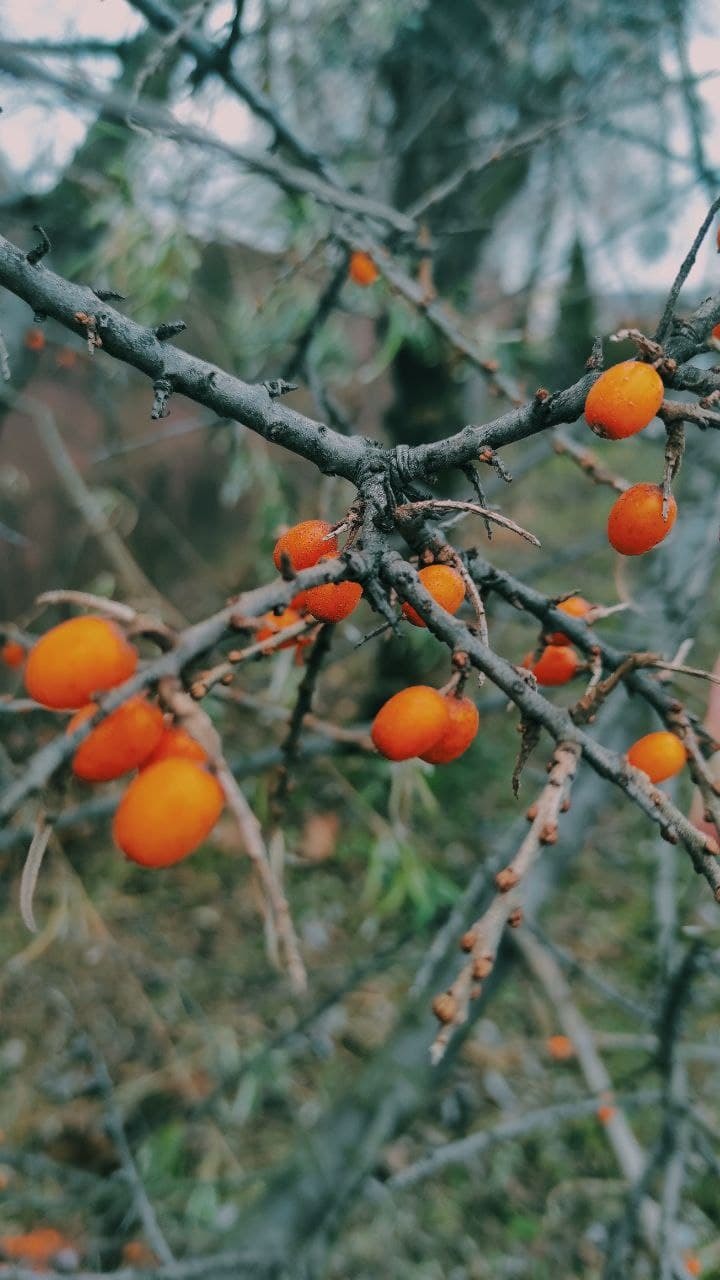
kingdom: Plantae
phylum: Tracheophyta
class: Magnoliopsida
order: Rosales
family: Elaeagnaceae
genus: Hippophae
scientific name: Hippophae rhamnoides
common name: Sea-buckthorn
